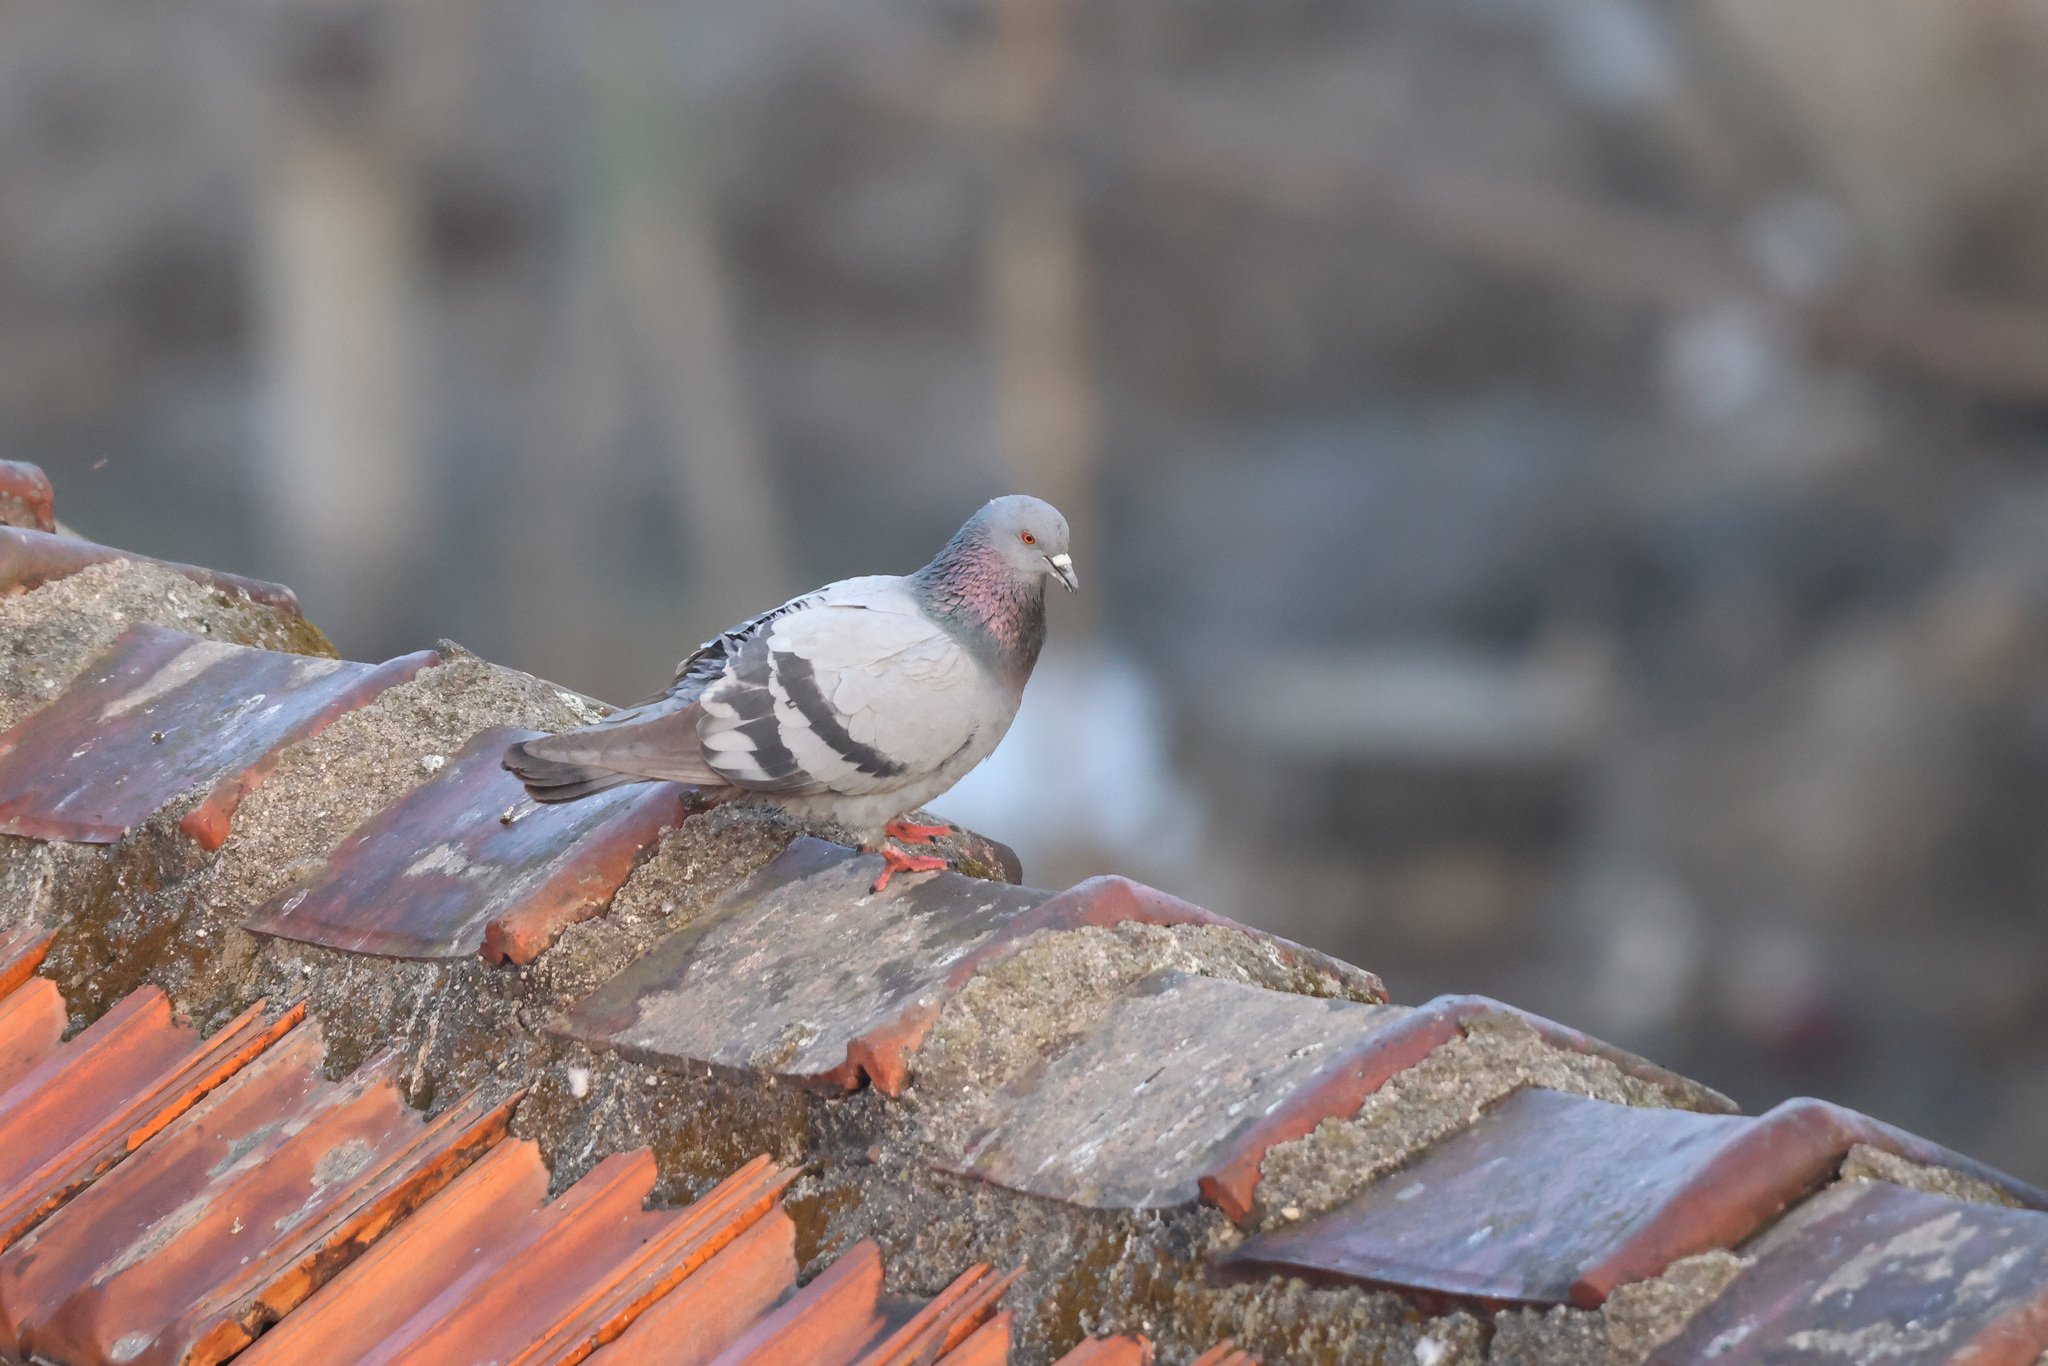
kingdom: Animalia
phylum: Chordata
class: Aves
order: Columbiformes
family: Columbidae
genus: Columba
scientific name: Columba livia
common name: Rock pigeon
